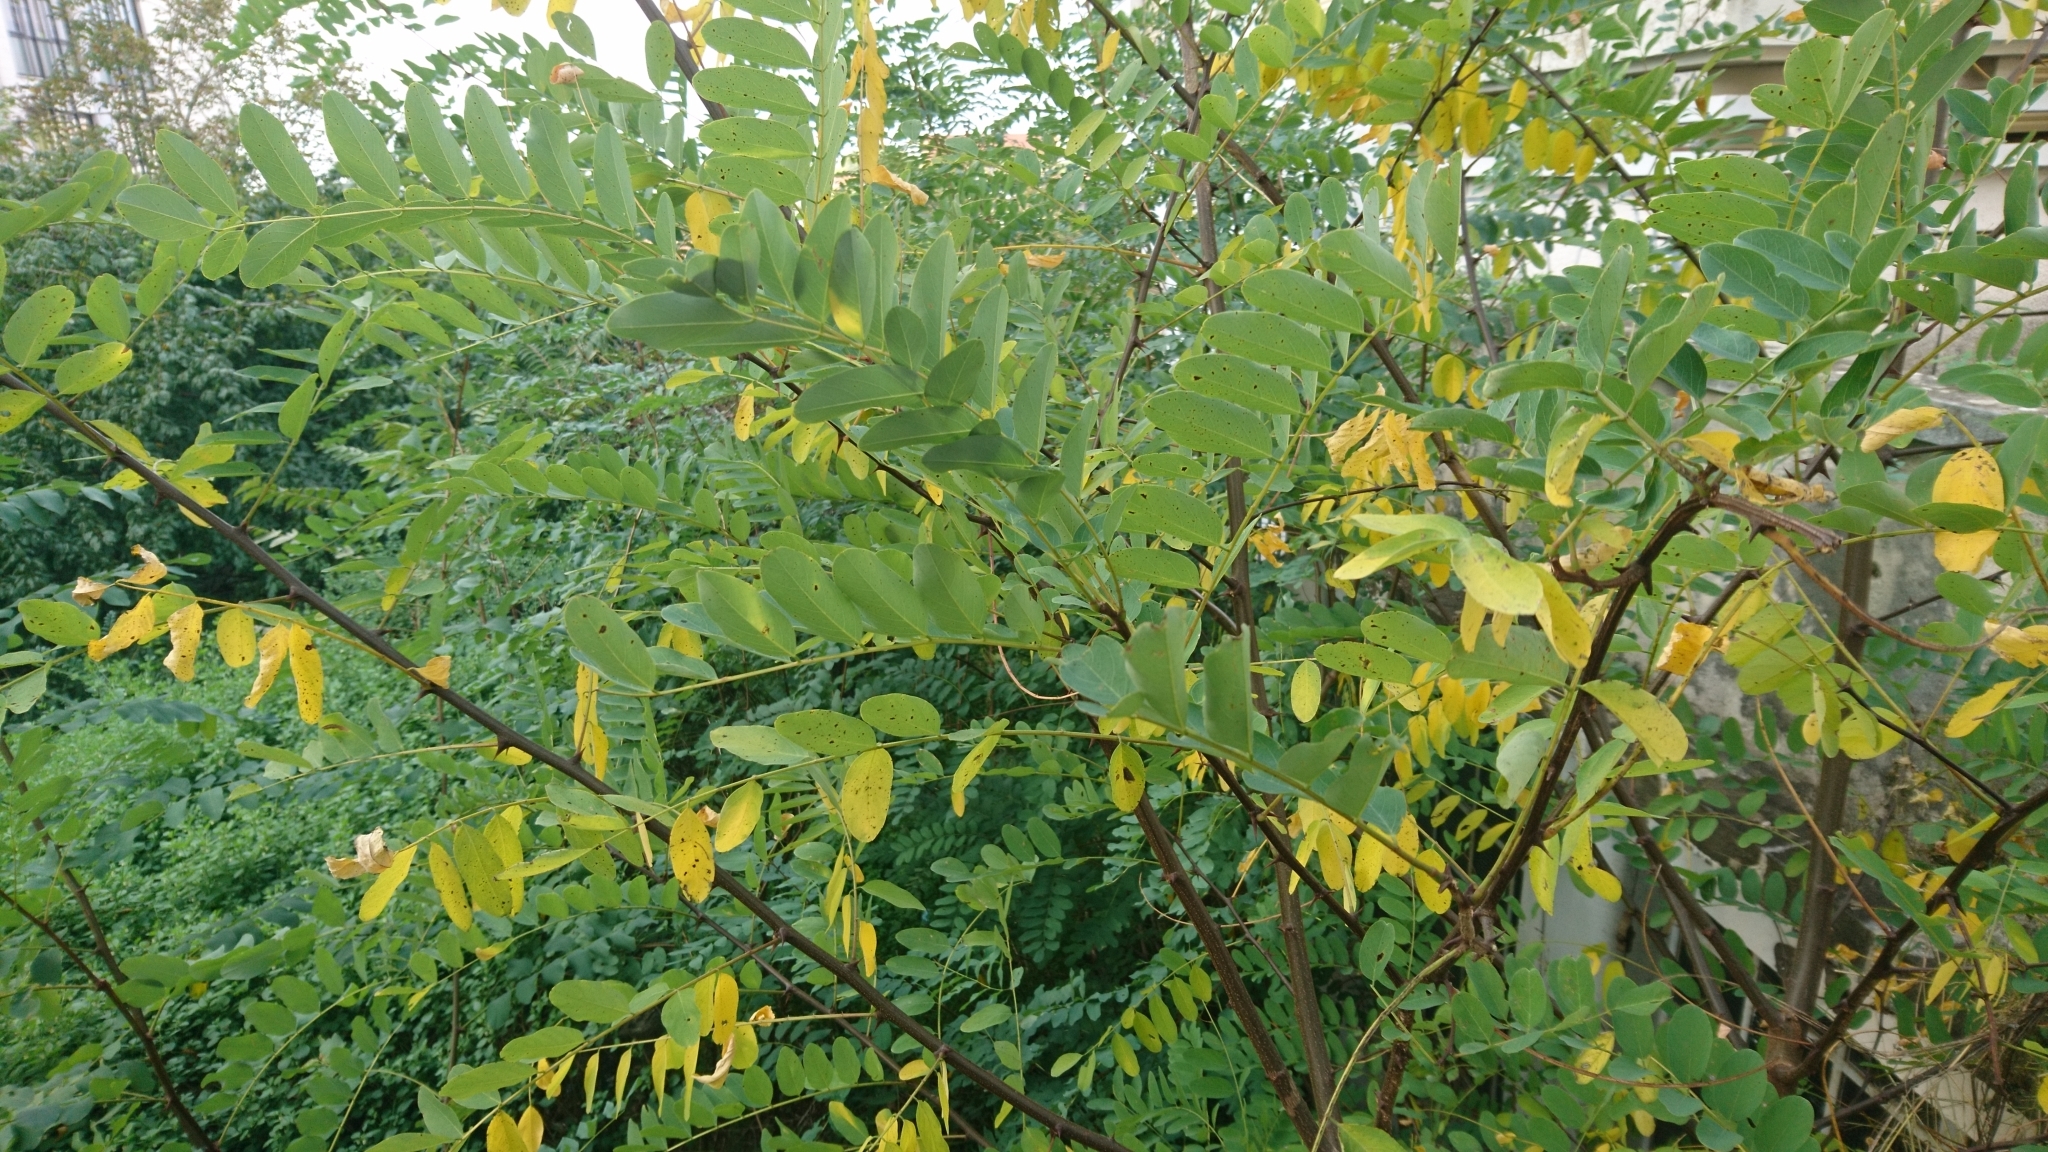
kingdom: Plantae
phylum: Tracheophyta
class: Magnoliopsida
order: Fabales
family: Fabaceae
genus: Robinia
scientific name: Robinia pseudoacacia
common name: Black locust
